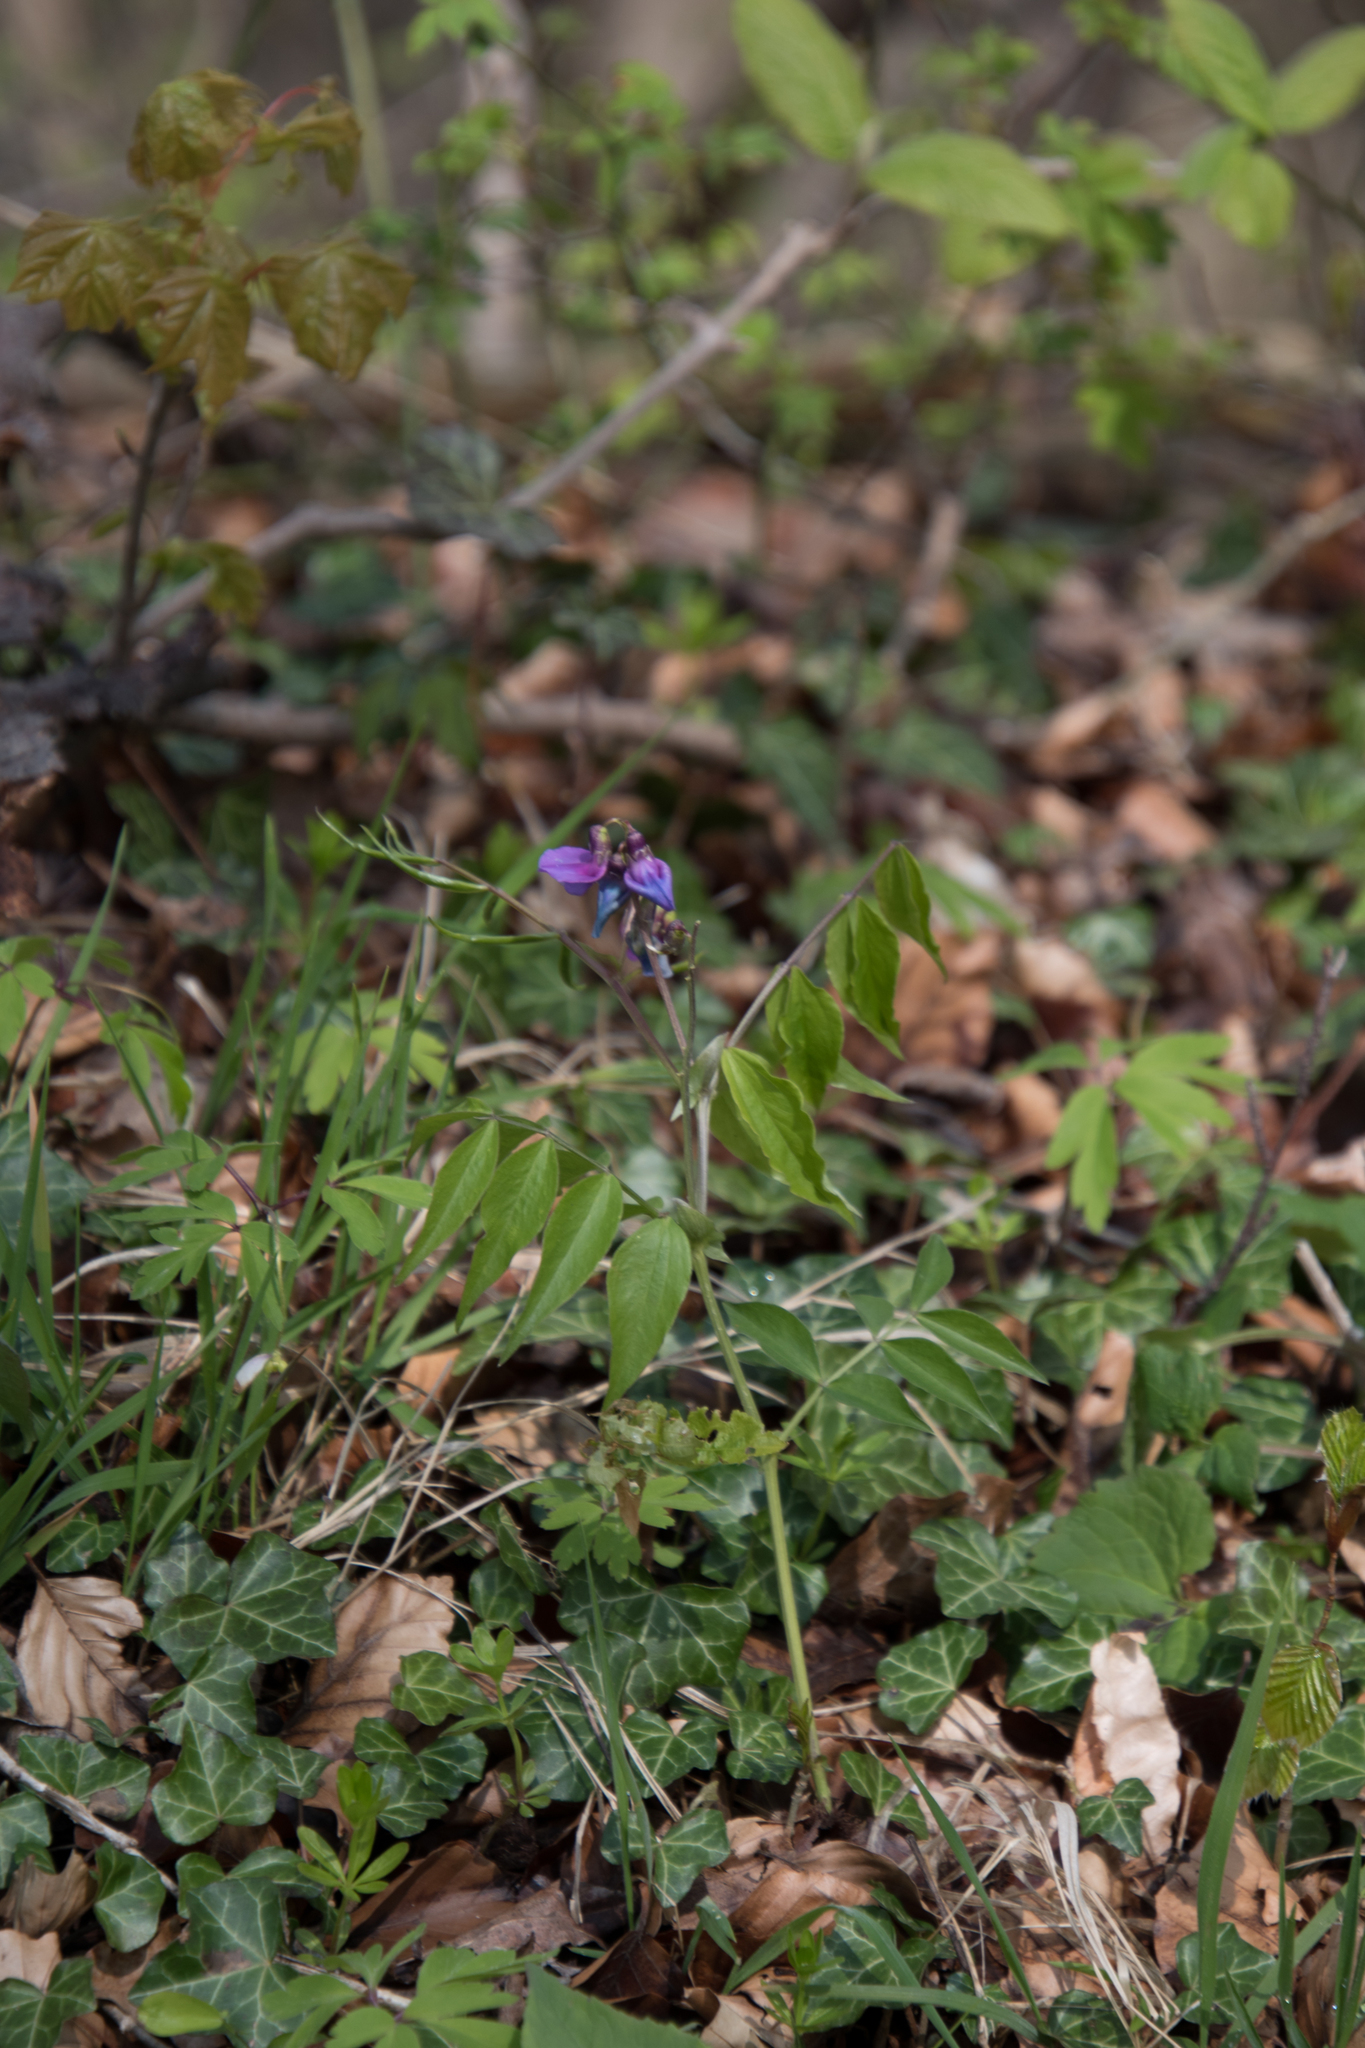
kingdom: Plantae
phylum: Tracheophyta
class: Magnoliopsida
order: Fabales
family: Fabaceae
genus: Lathyrus
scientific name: Lathyrus vernus
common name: Spring pea
